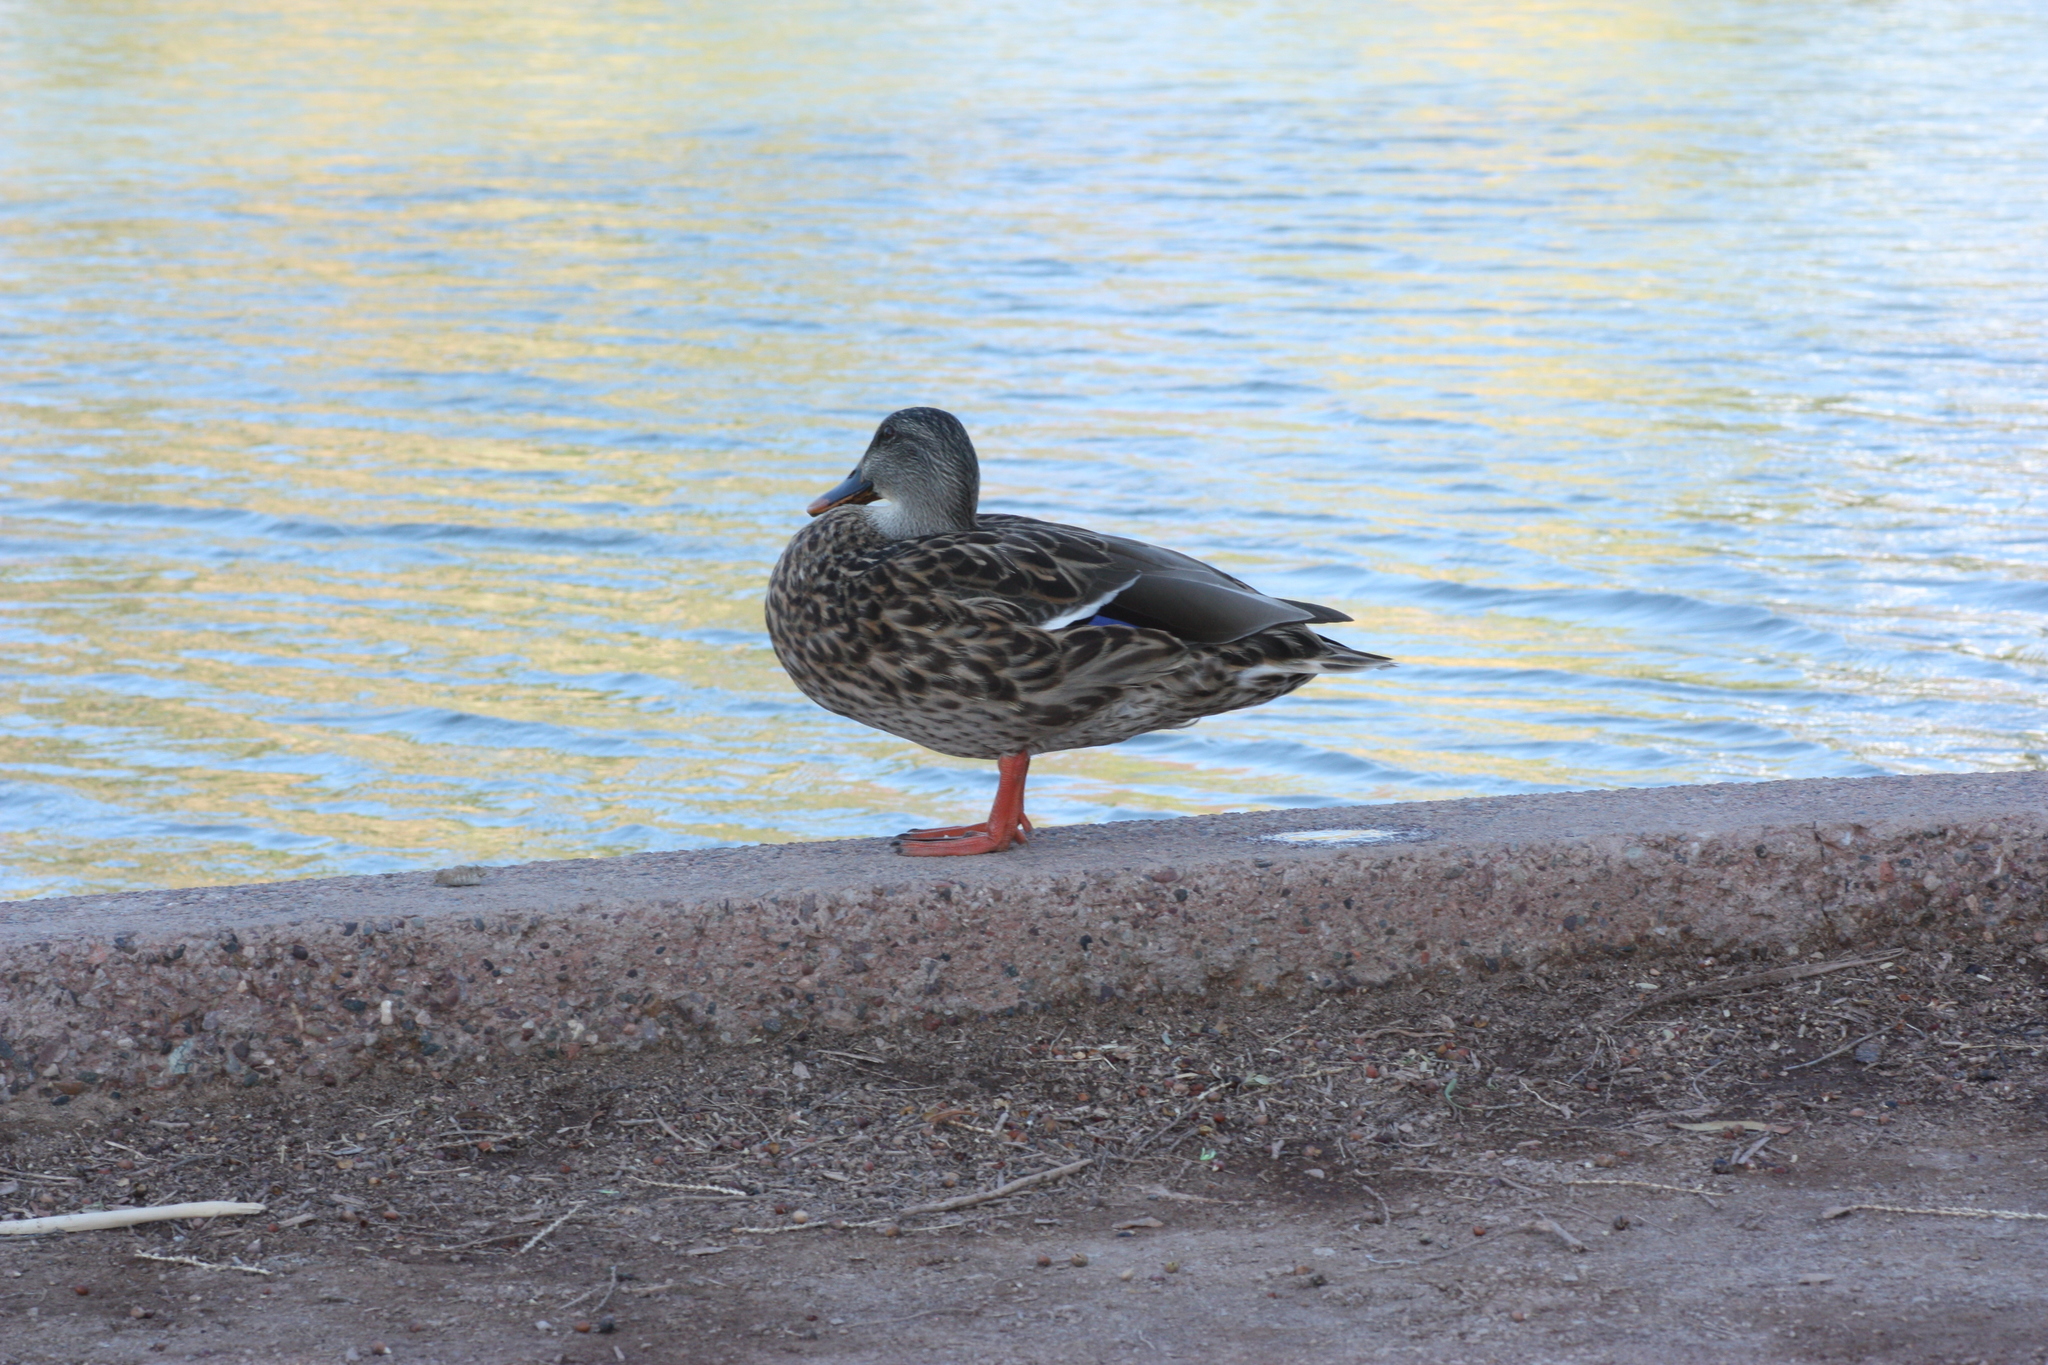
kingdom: Animalia
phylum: Chordata
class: Aves
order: Anseriformes
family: Anatidae
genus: Anas
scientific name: Anas platyrhynchos
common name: Mallard
